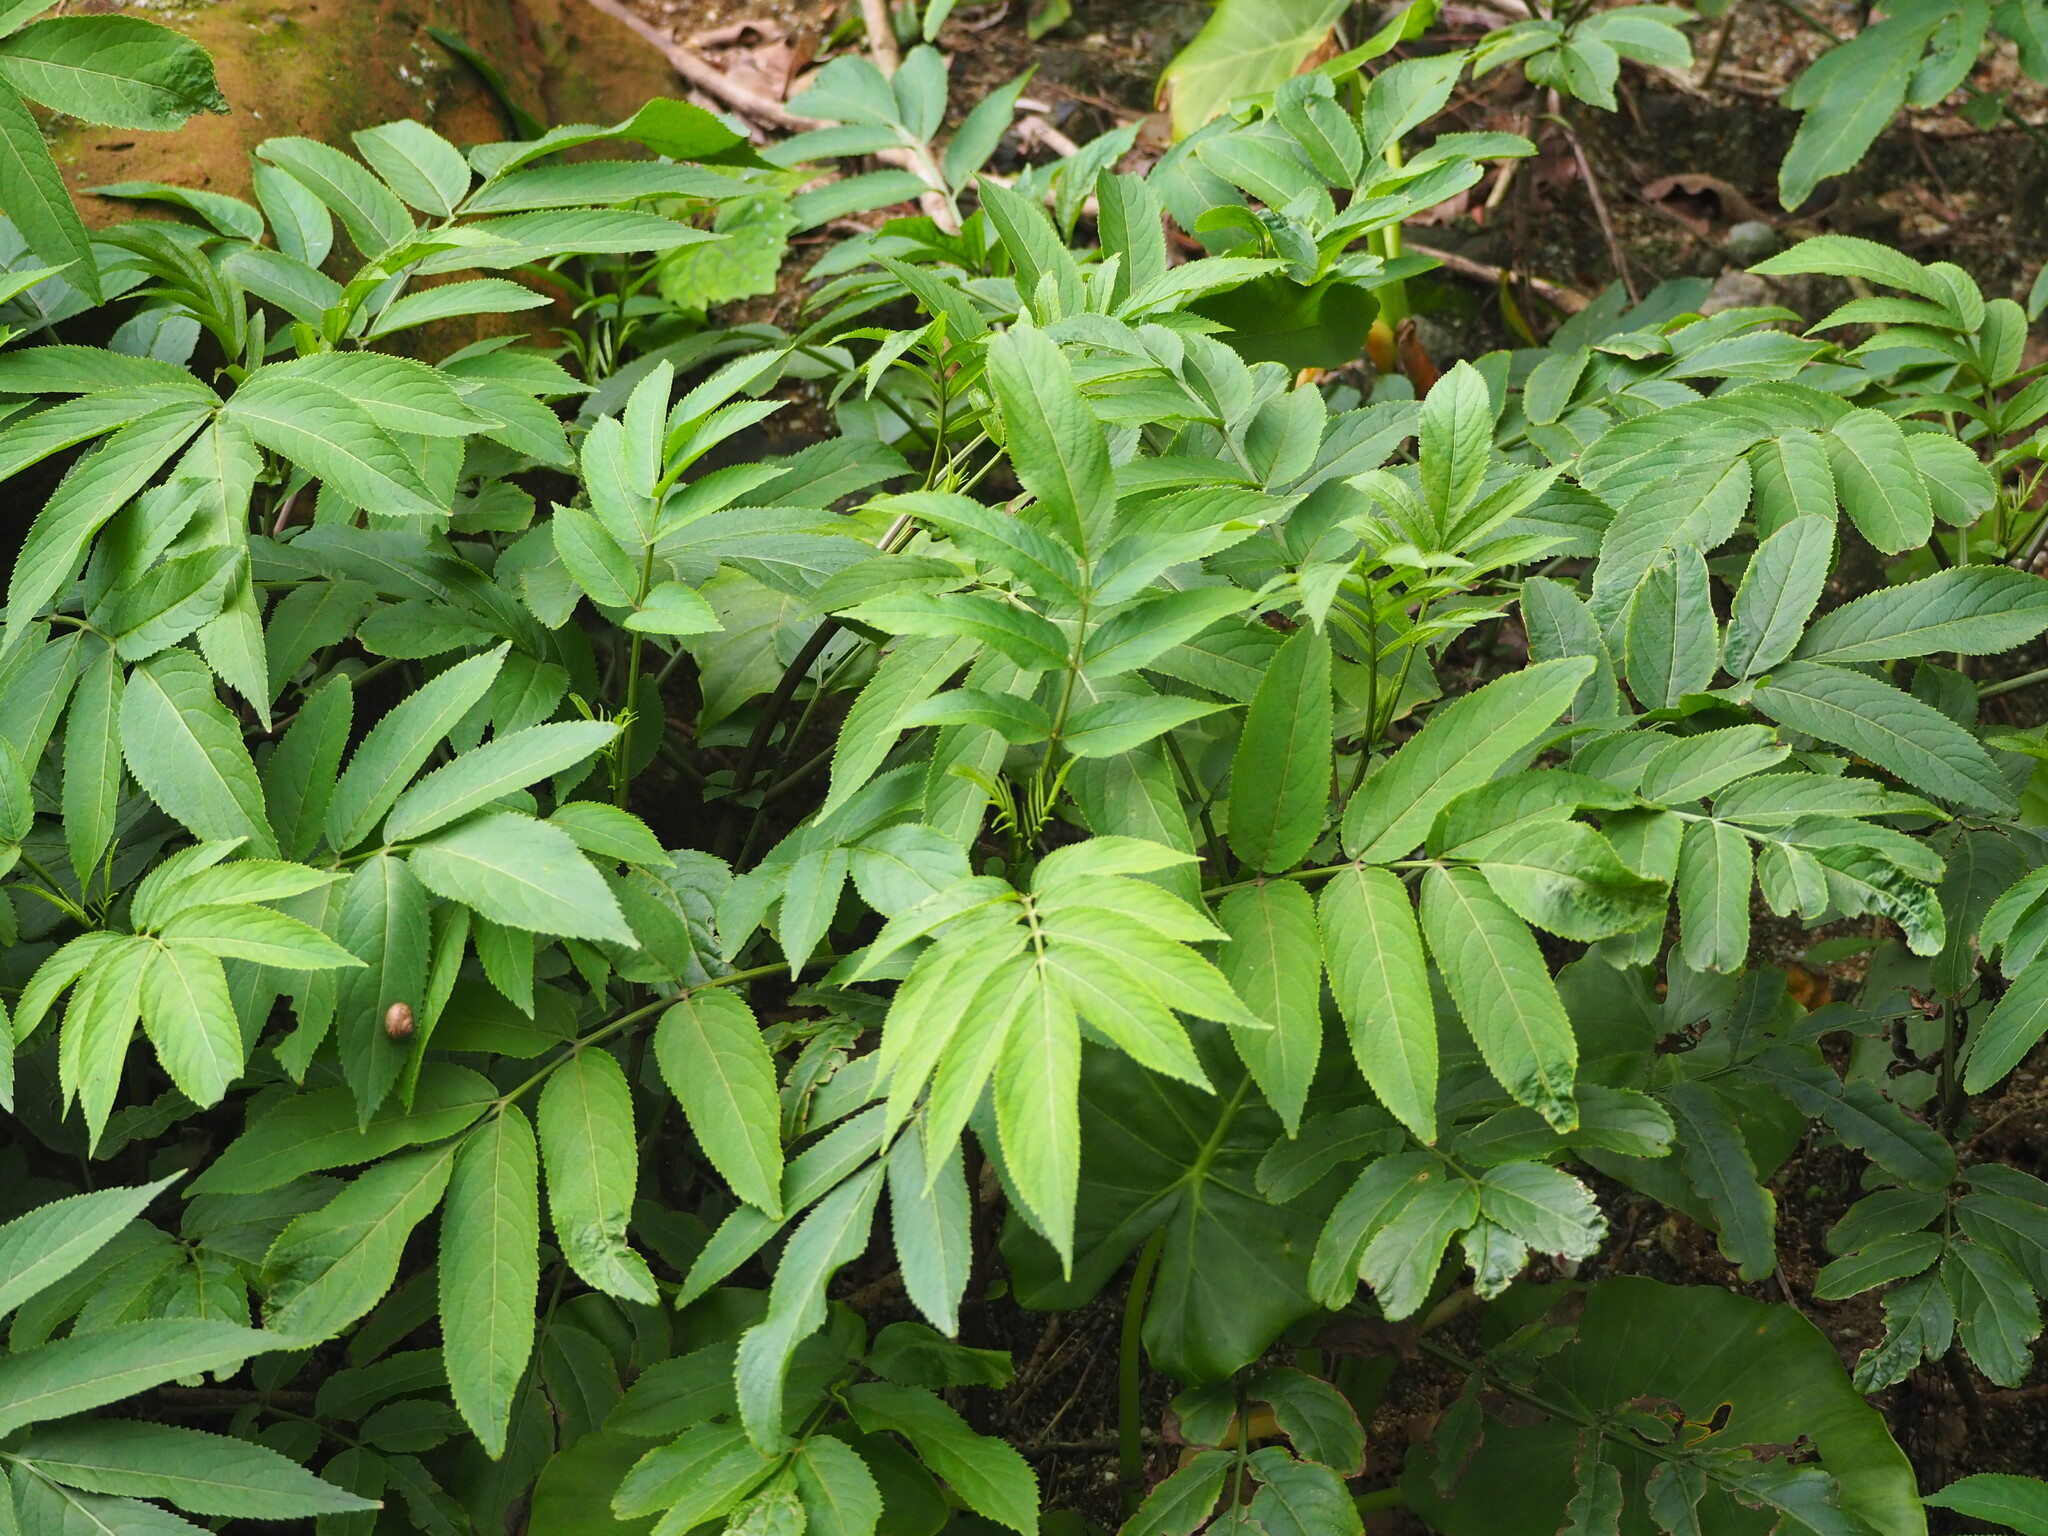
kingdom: Plantae
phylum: Tracheophyta
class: Magnoliopsida
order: Dipsacales
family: Viburnaceae
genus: Sambucus
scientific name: Sambucus javanica
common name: Chinese elder
